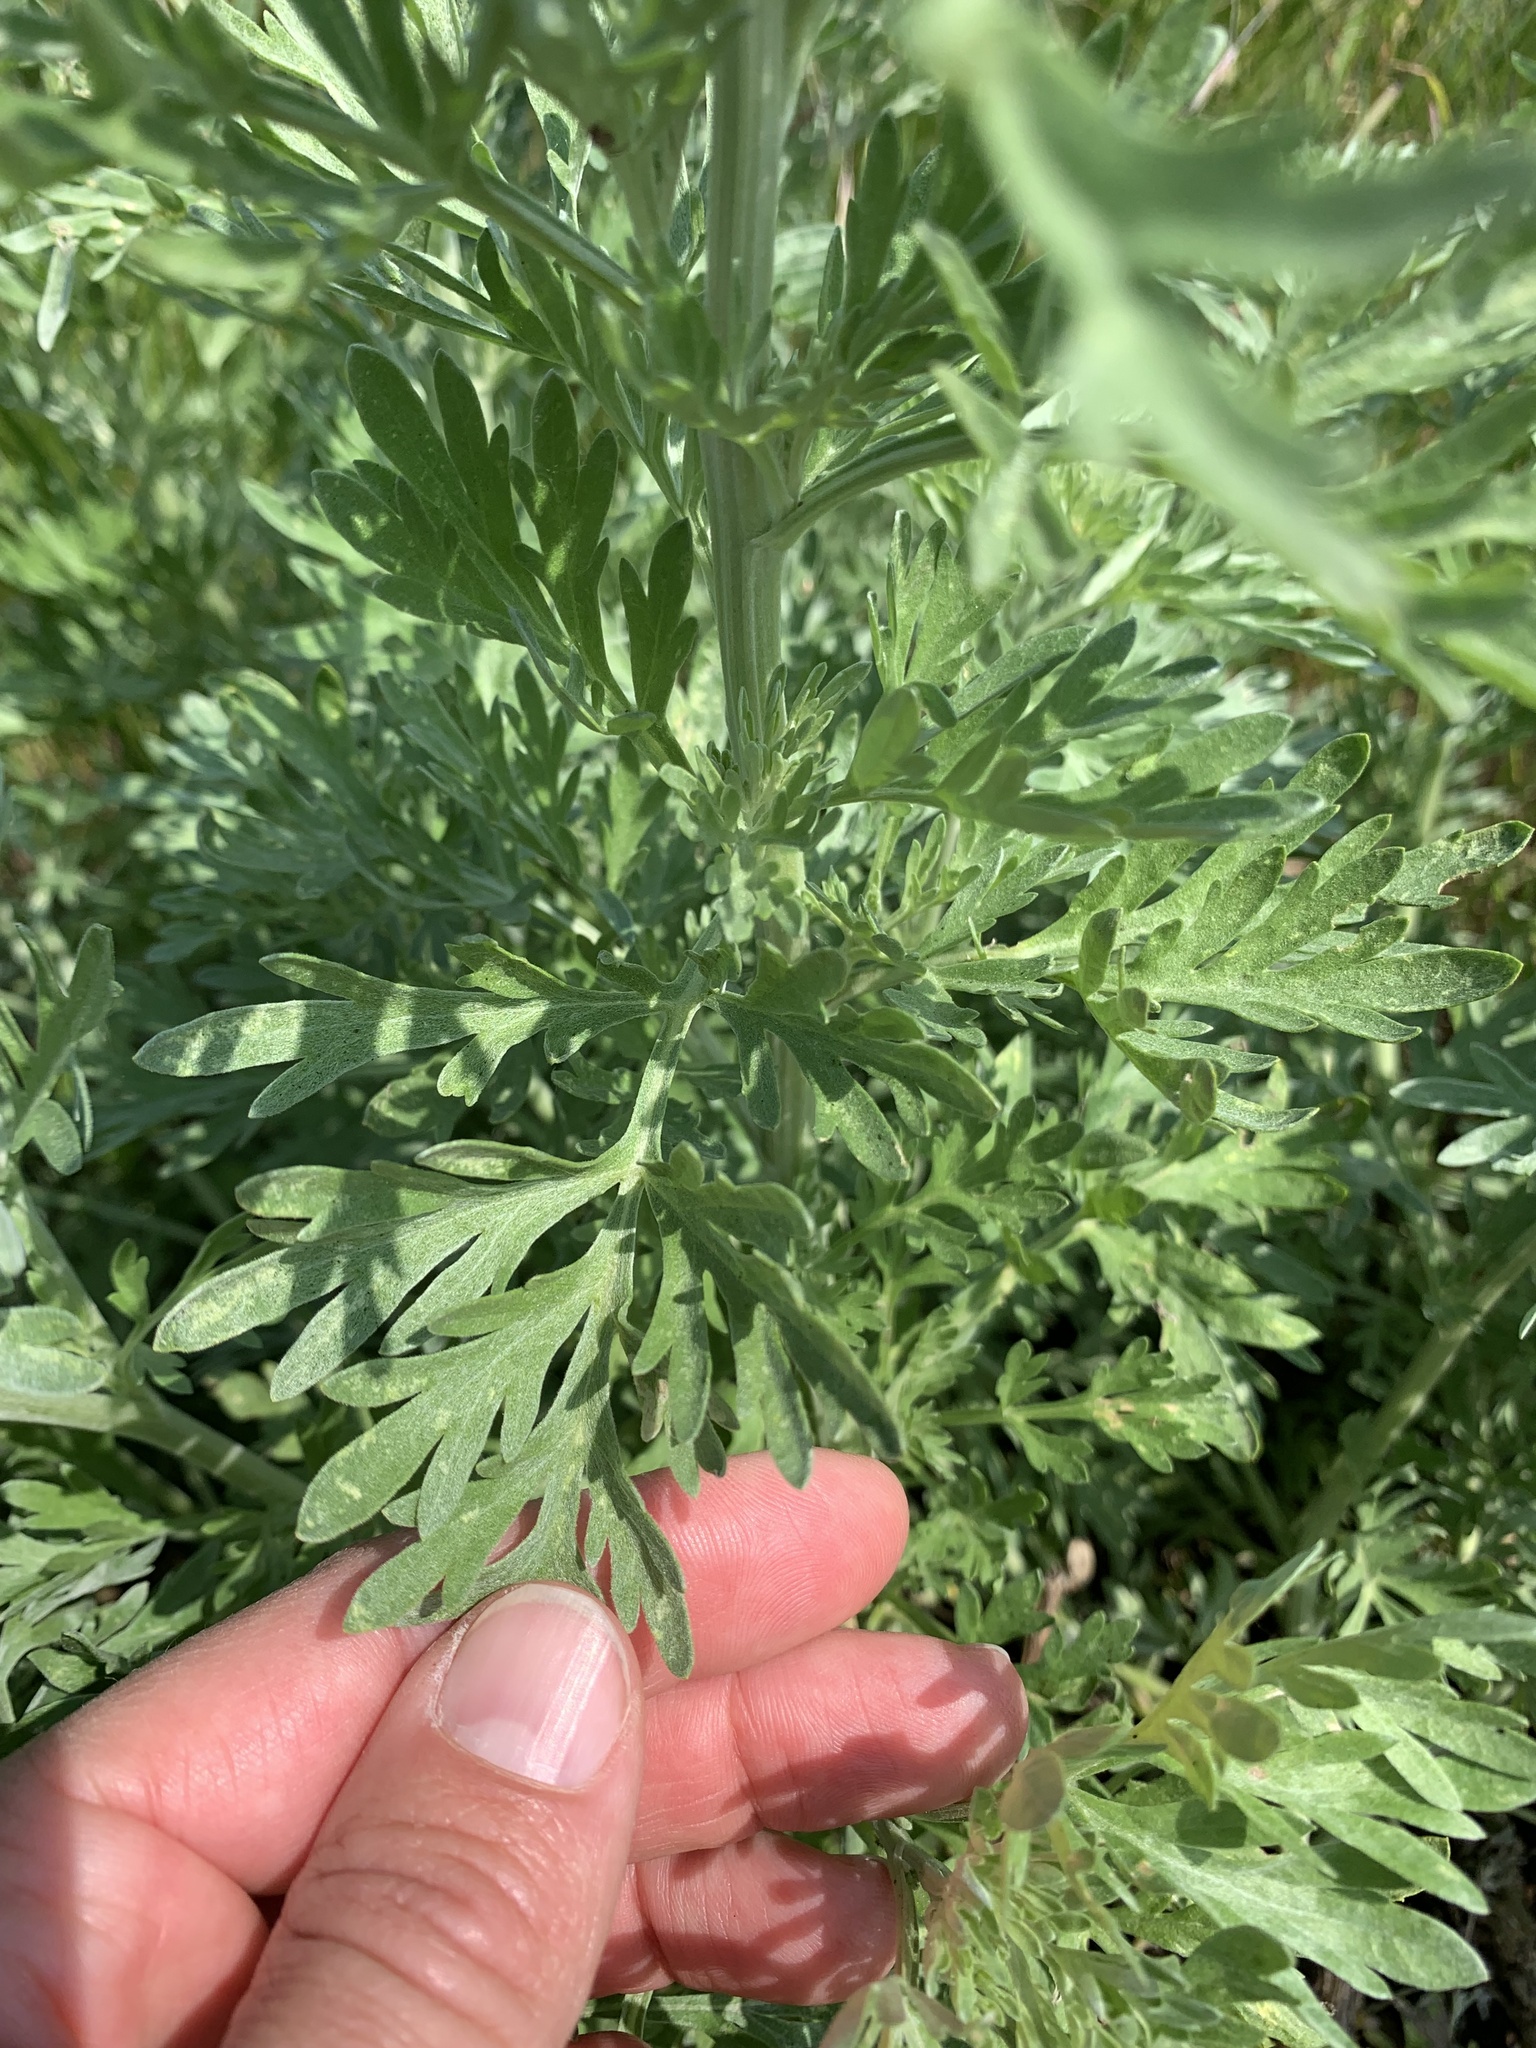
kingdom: Plantae
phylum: Tracheophyta
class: Magnoliopsida
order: Asterales
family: Asteraceae
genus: Artemisia
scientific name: Artemisia absinthium
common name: Wormwood
